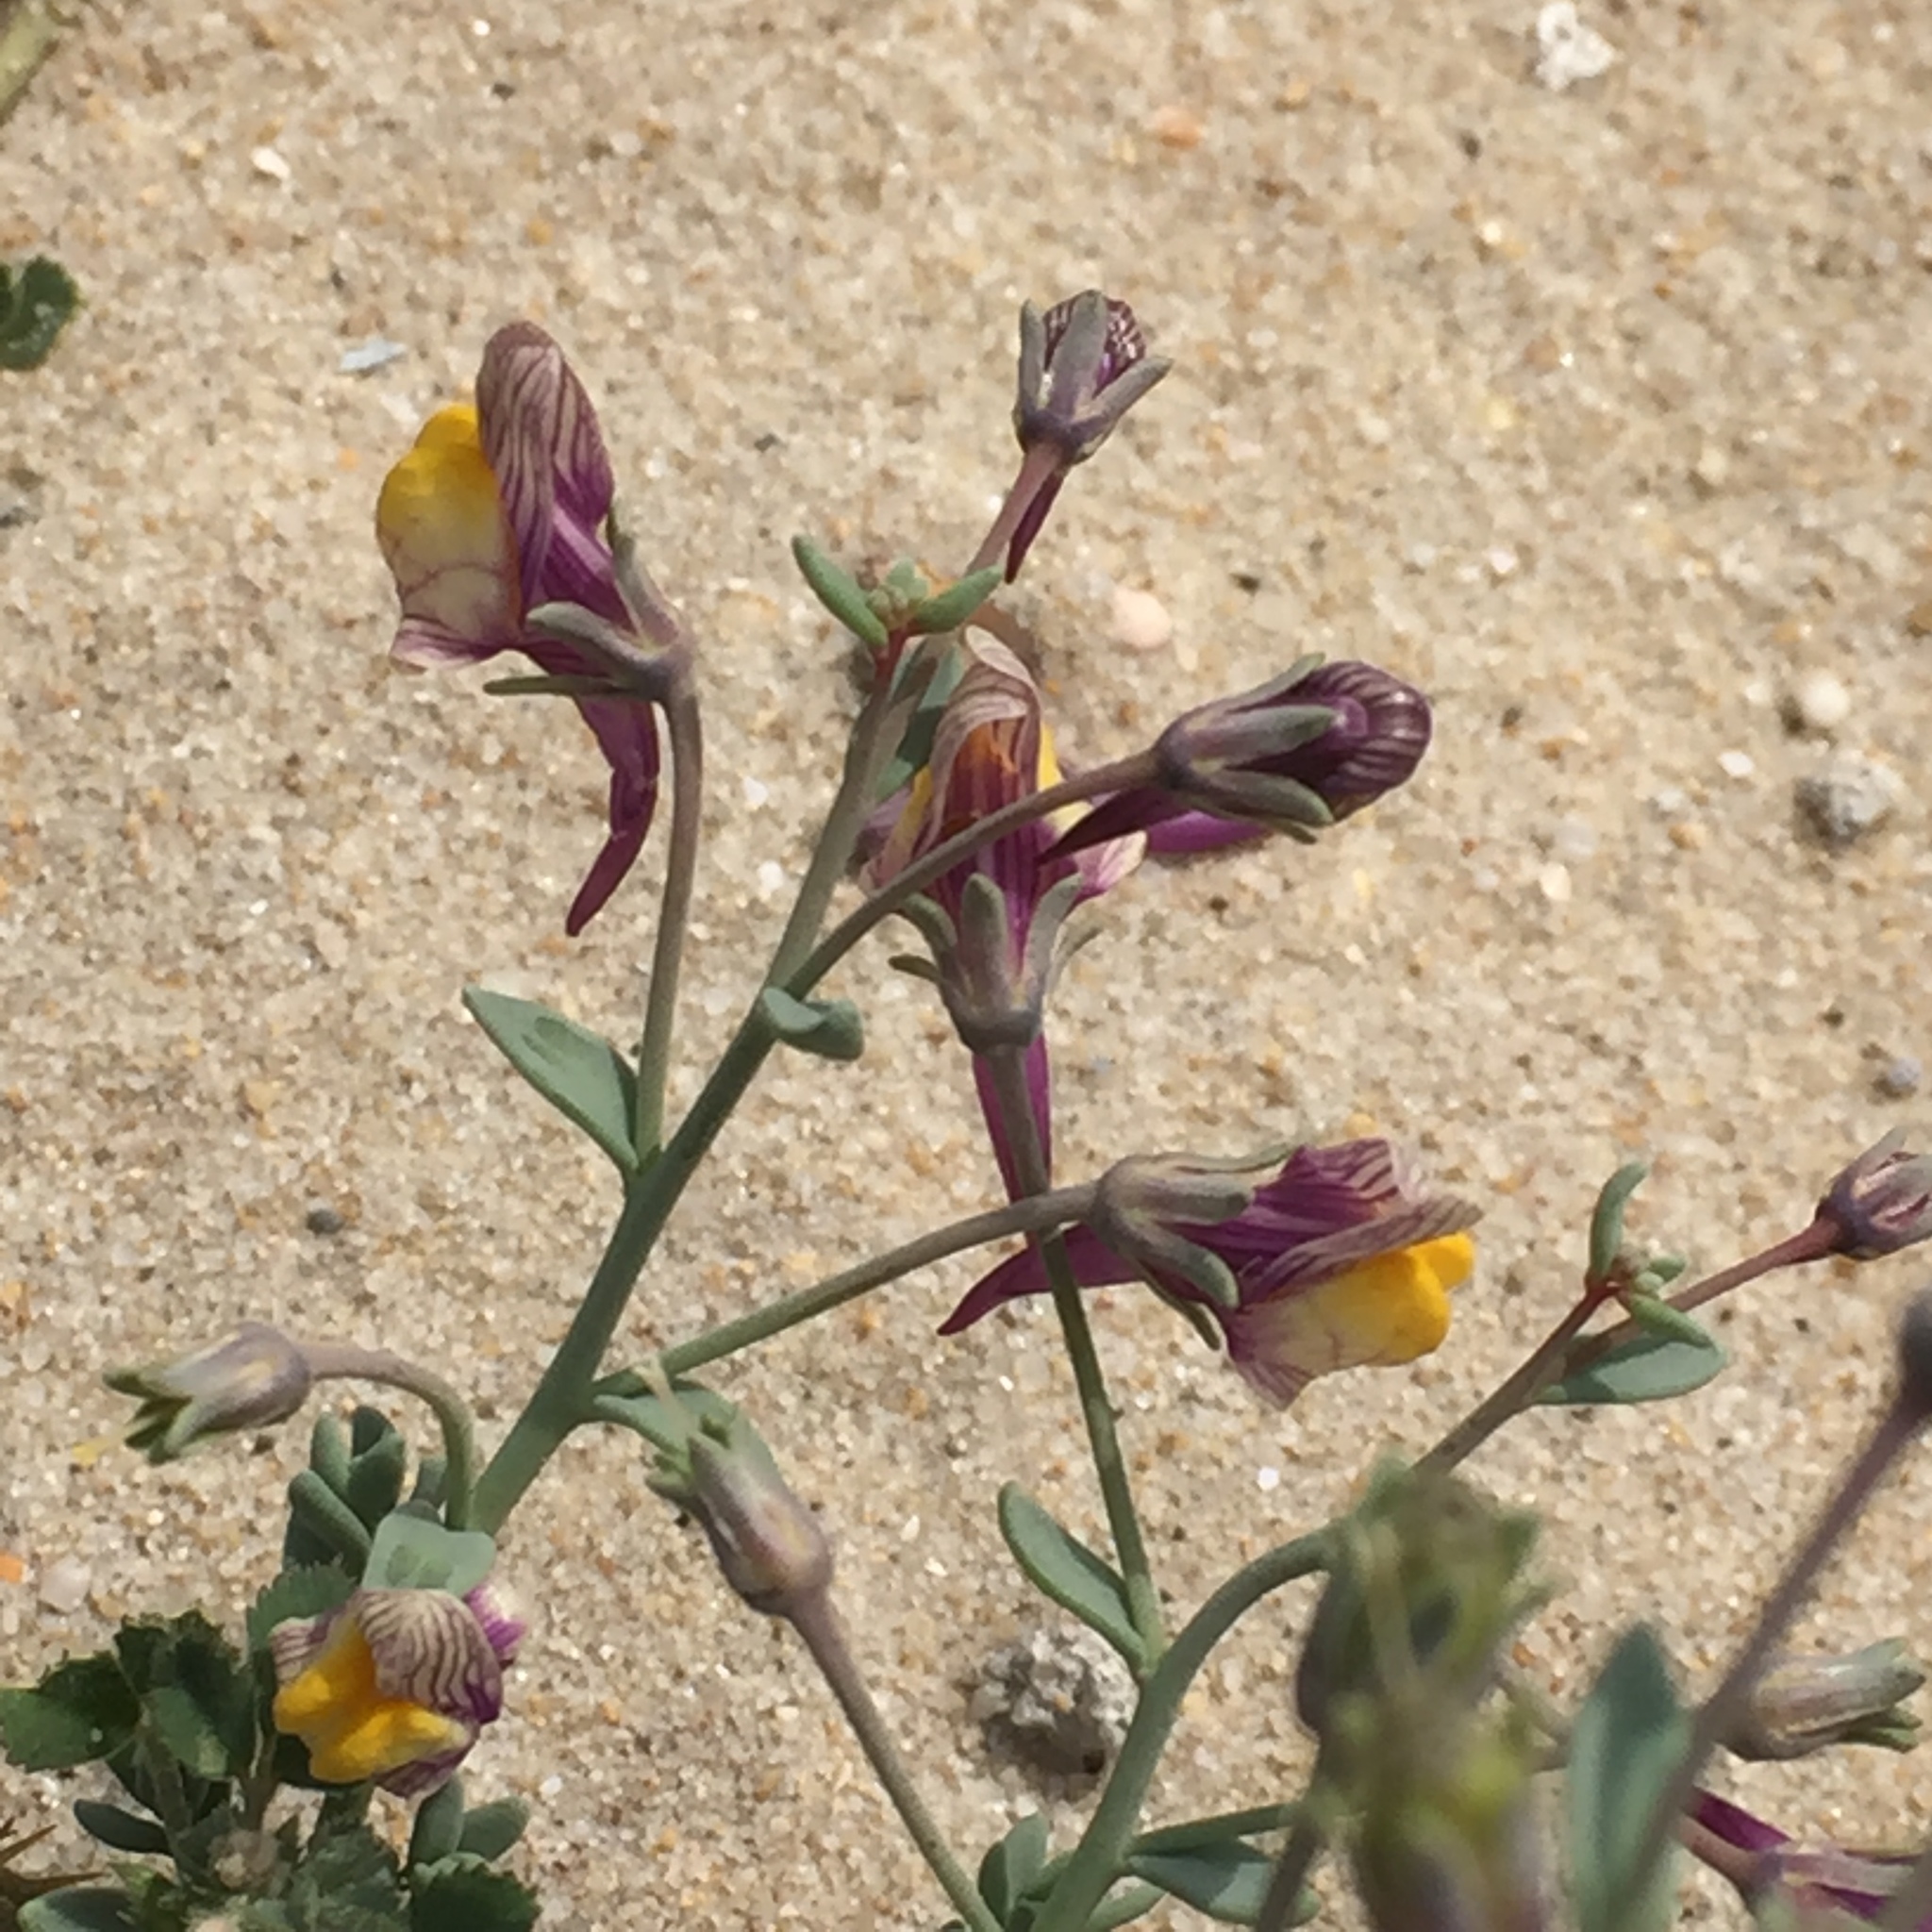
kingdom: Plantae
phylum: Tracheophyta
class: Magnoliopsida
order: Lamiales
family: Plantaginaceae
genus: Linaria
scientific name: Linaria pedunculata
